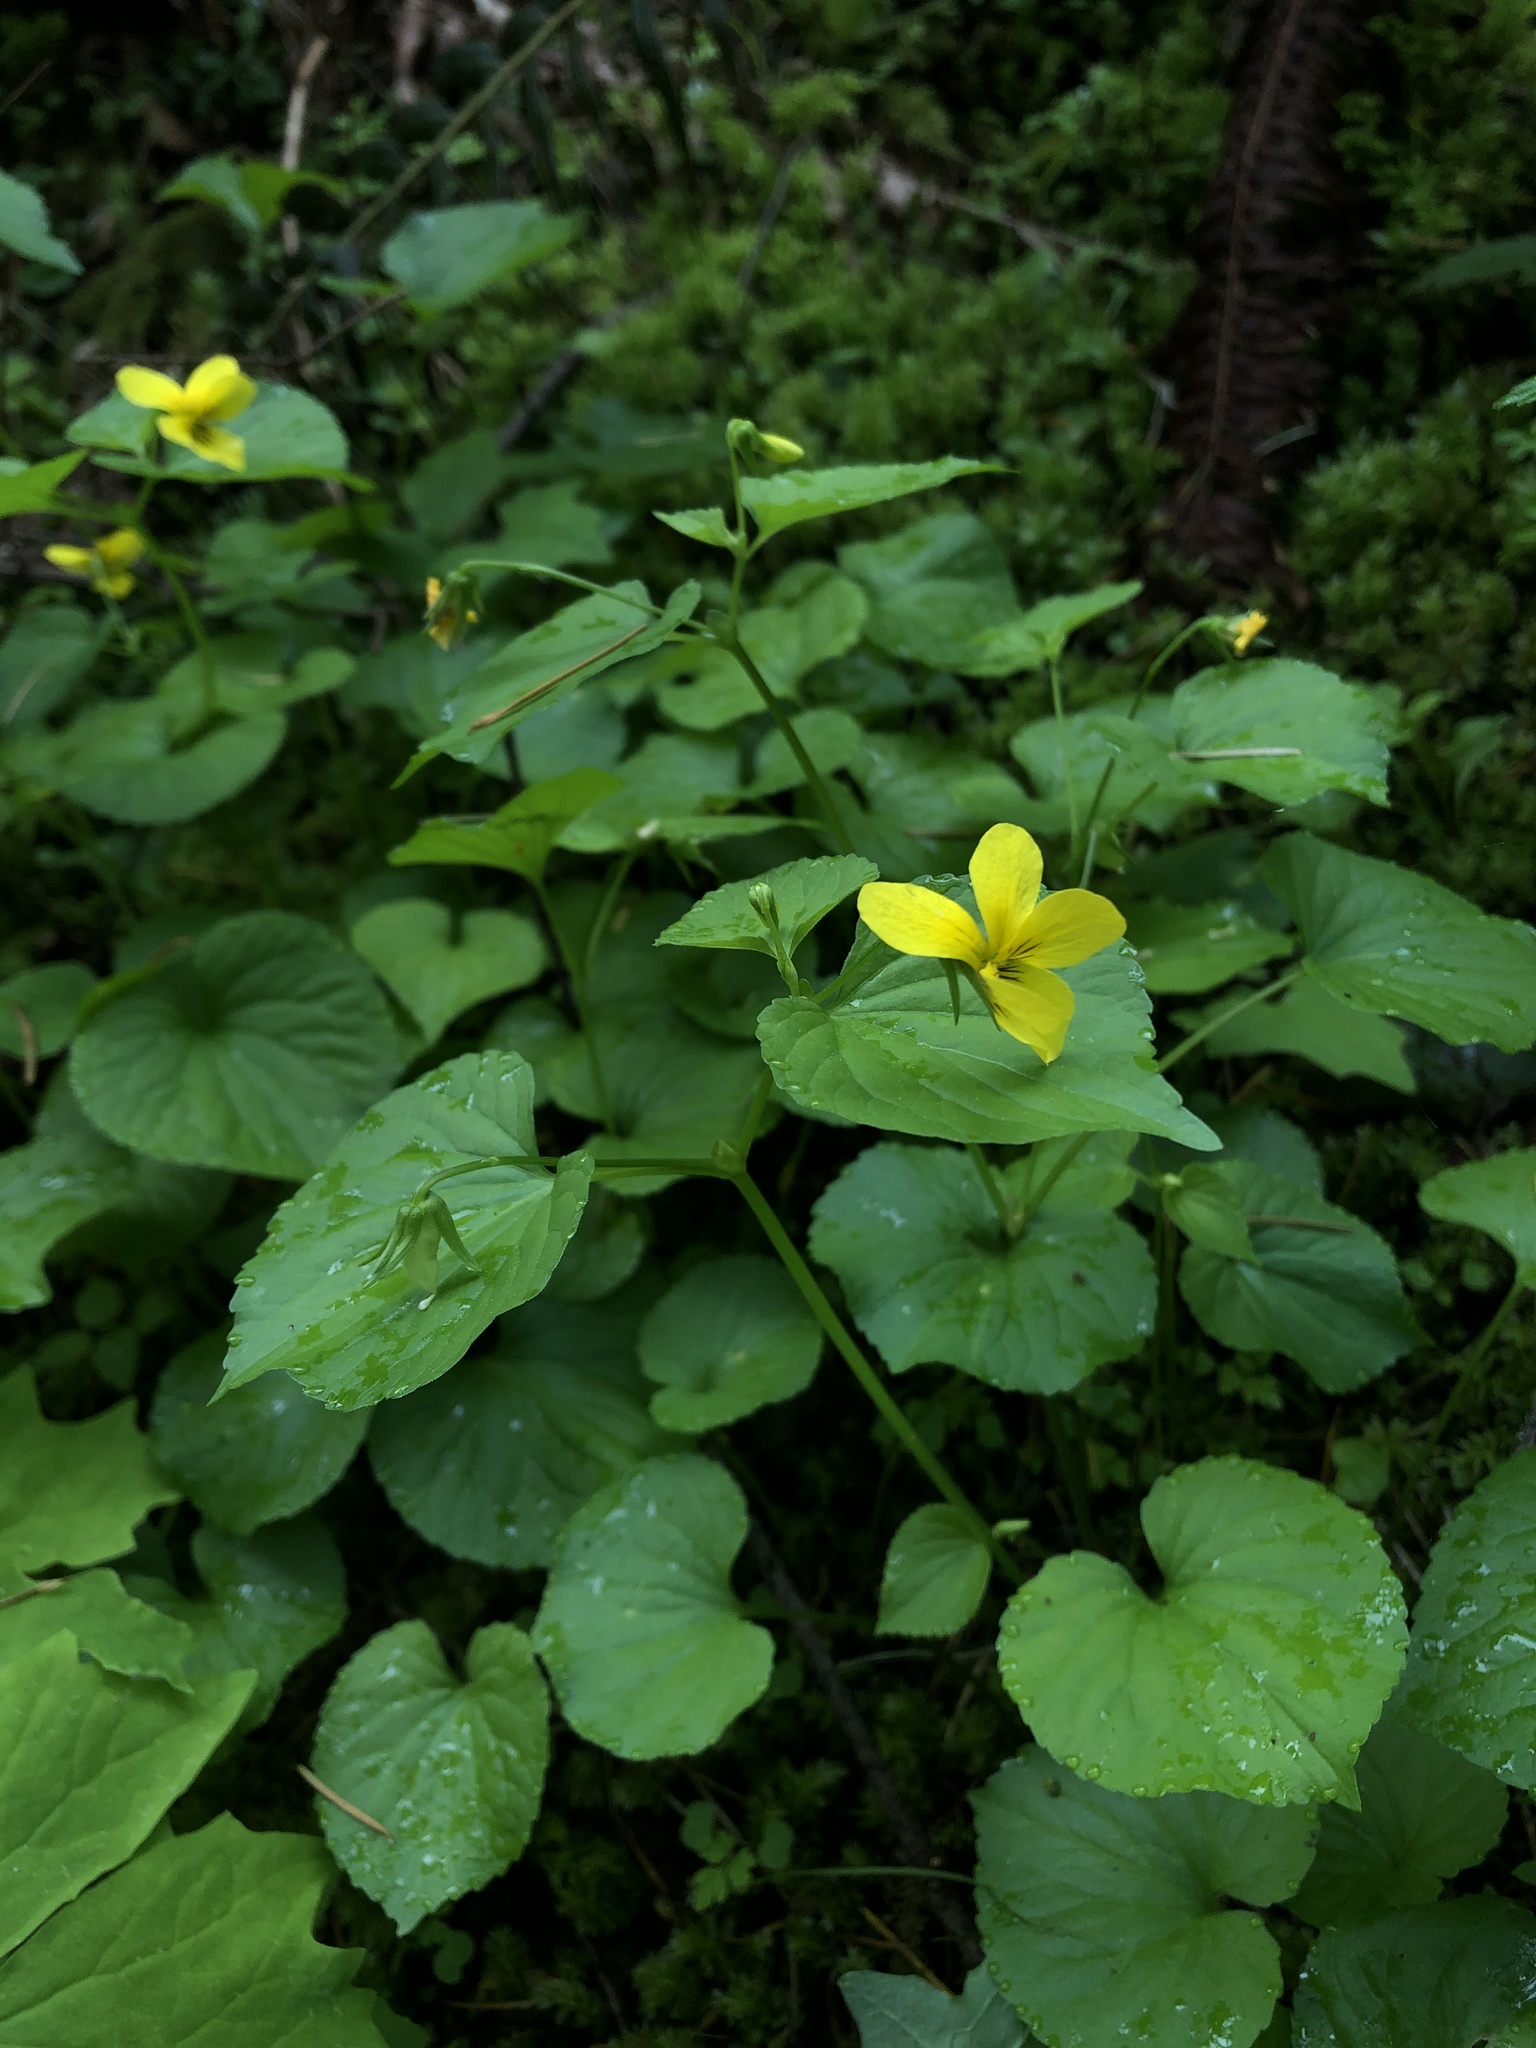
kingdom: Plantae
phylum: Tracheophyta
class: Magnoliopsida
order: Malpighiales
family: Violaceae
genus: Viola
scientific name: Viola glabella
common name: Stream violet
